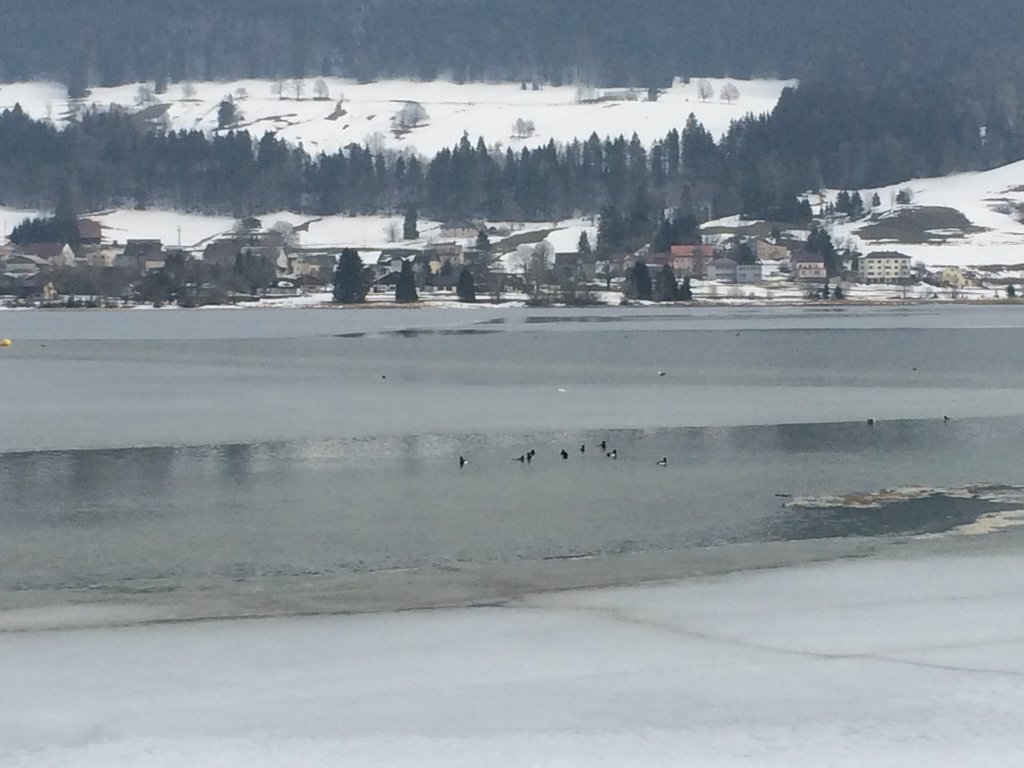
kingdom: Animalia
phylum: Chordata
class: Aves
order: Anseriformes
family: Anatidae
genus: Aythya
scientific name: Aythya fuligula
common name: Tufted duck
